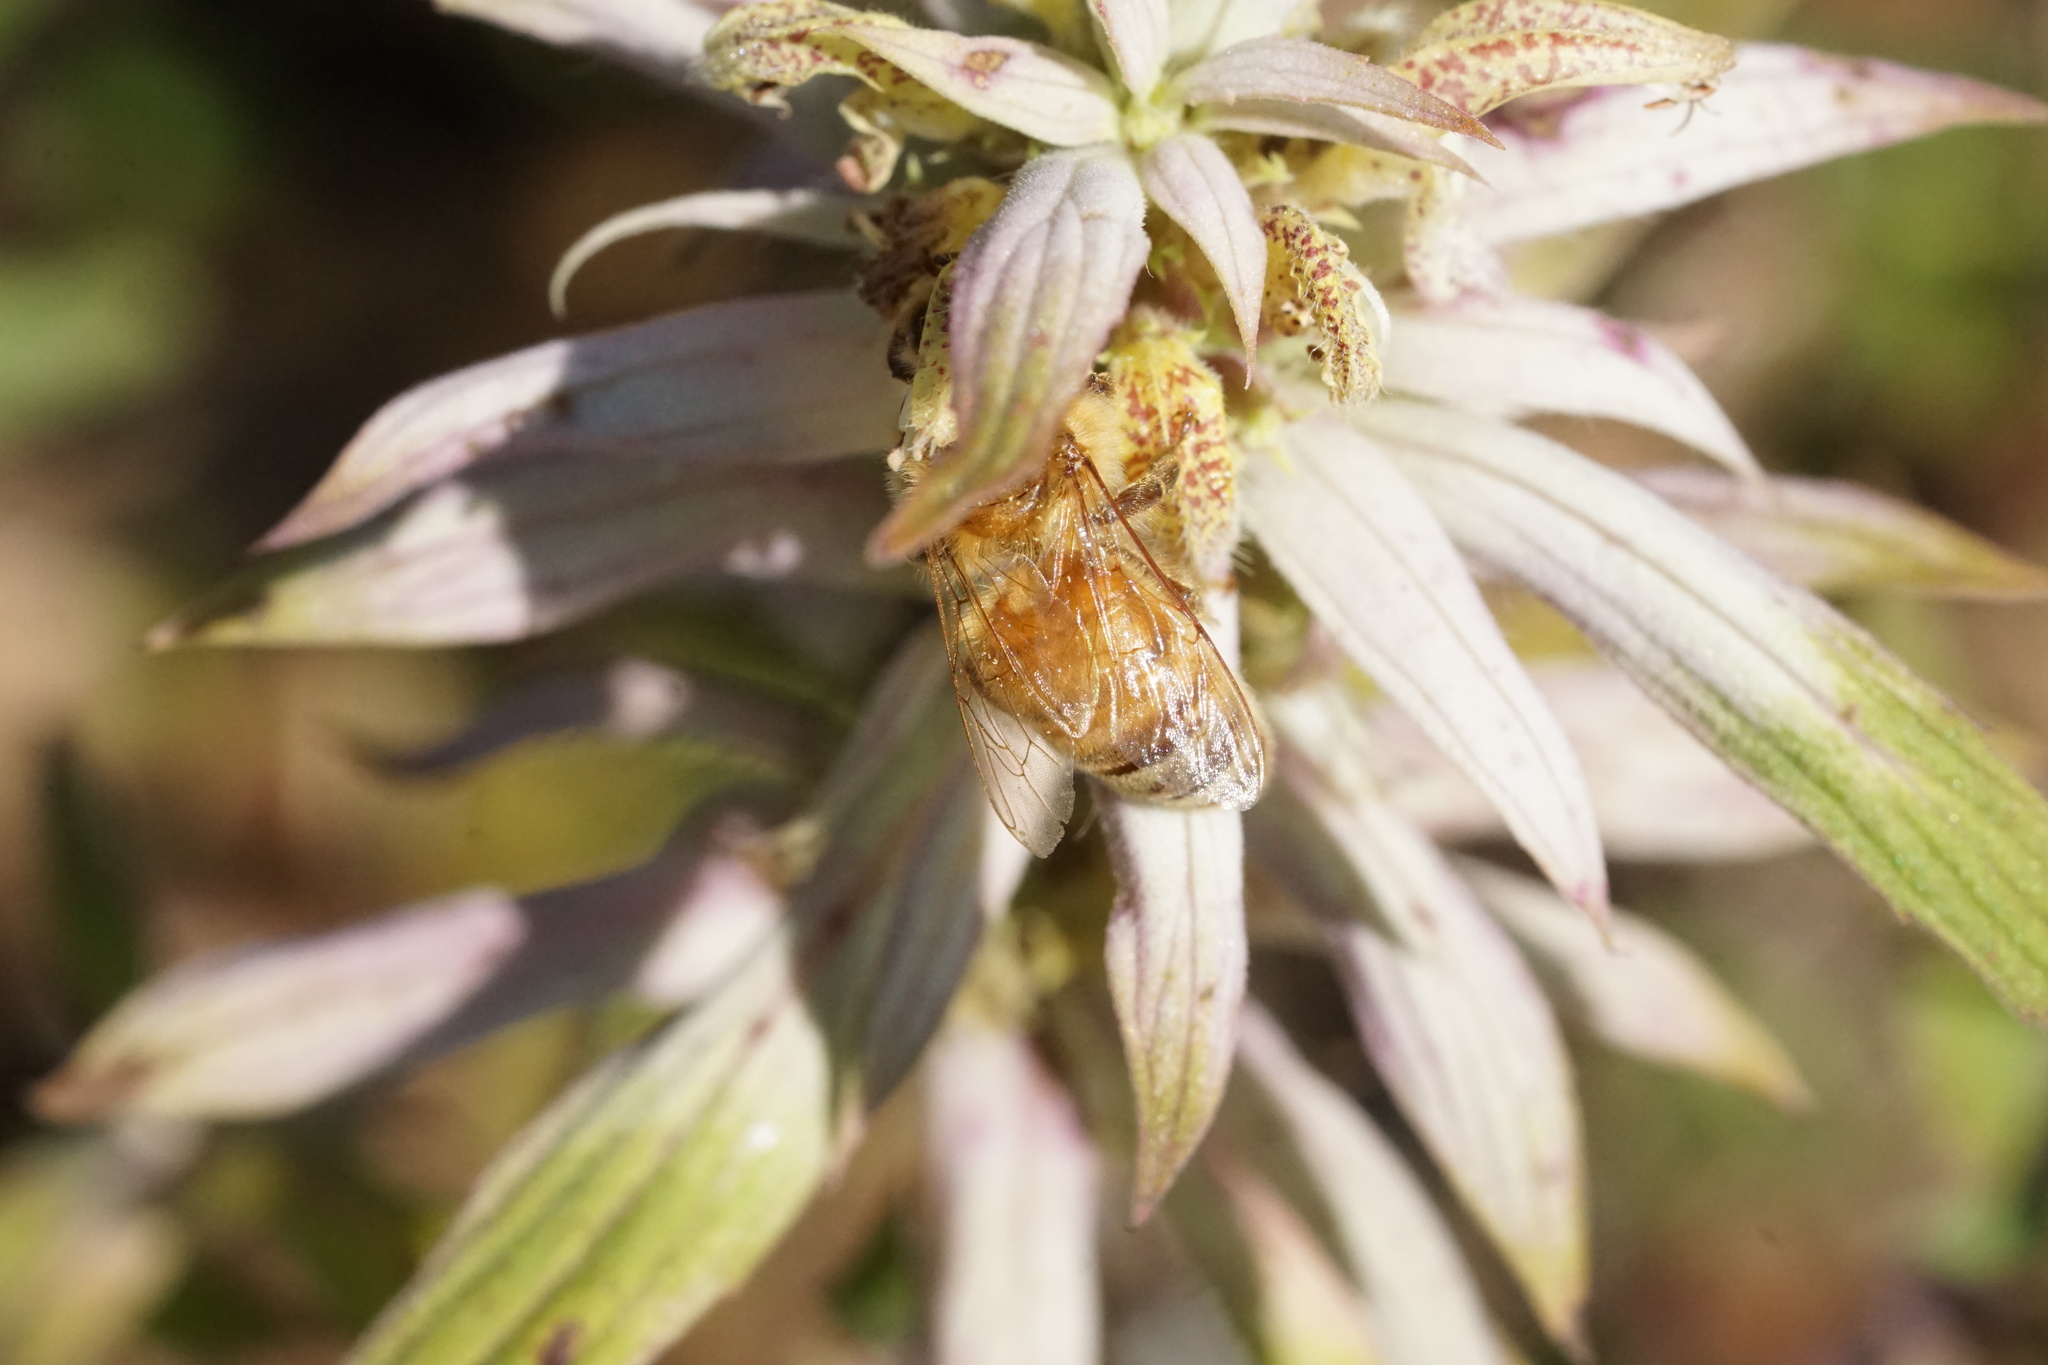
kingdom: Animalia
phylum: Arthropoda
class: Insecta
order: Hymenoptera
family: Apidae
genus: Apis
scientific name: Apis mellifera
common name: Honey bee
